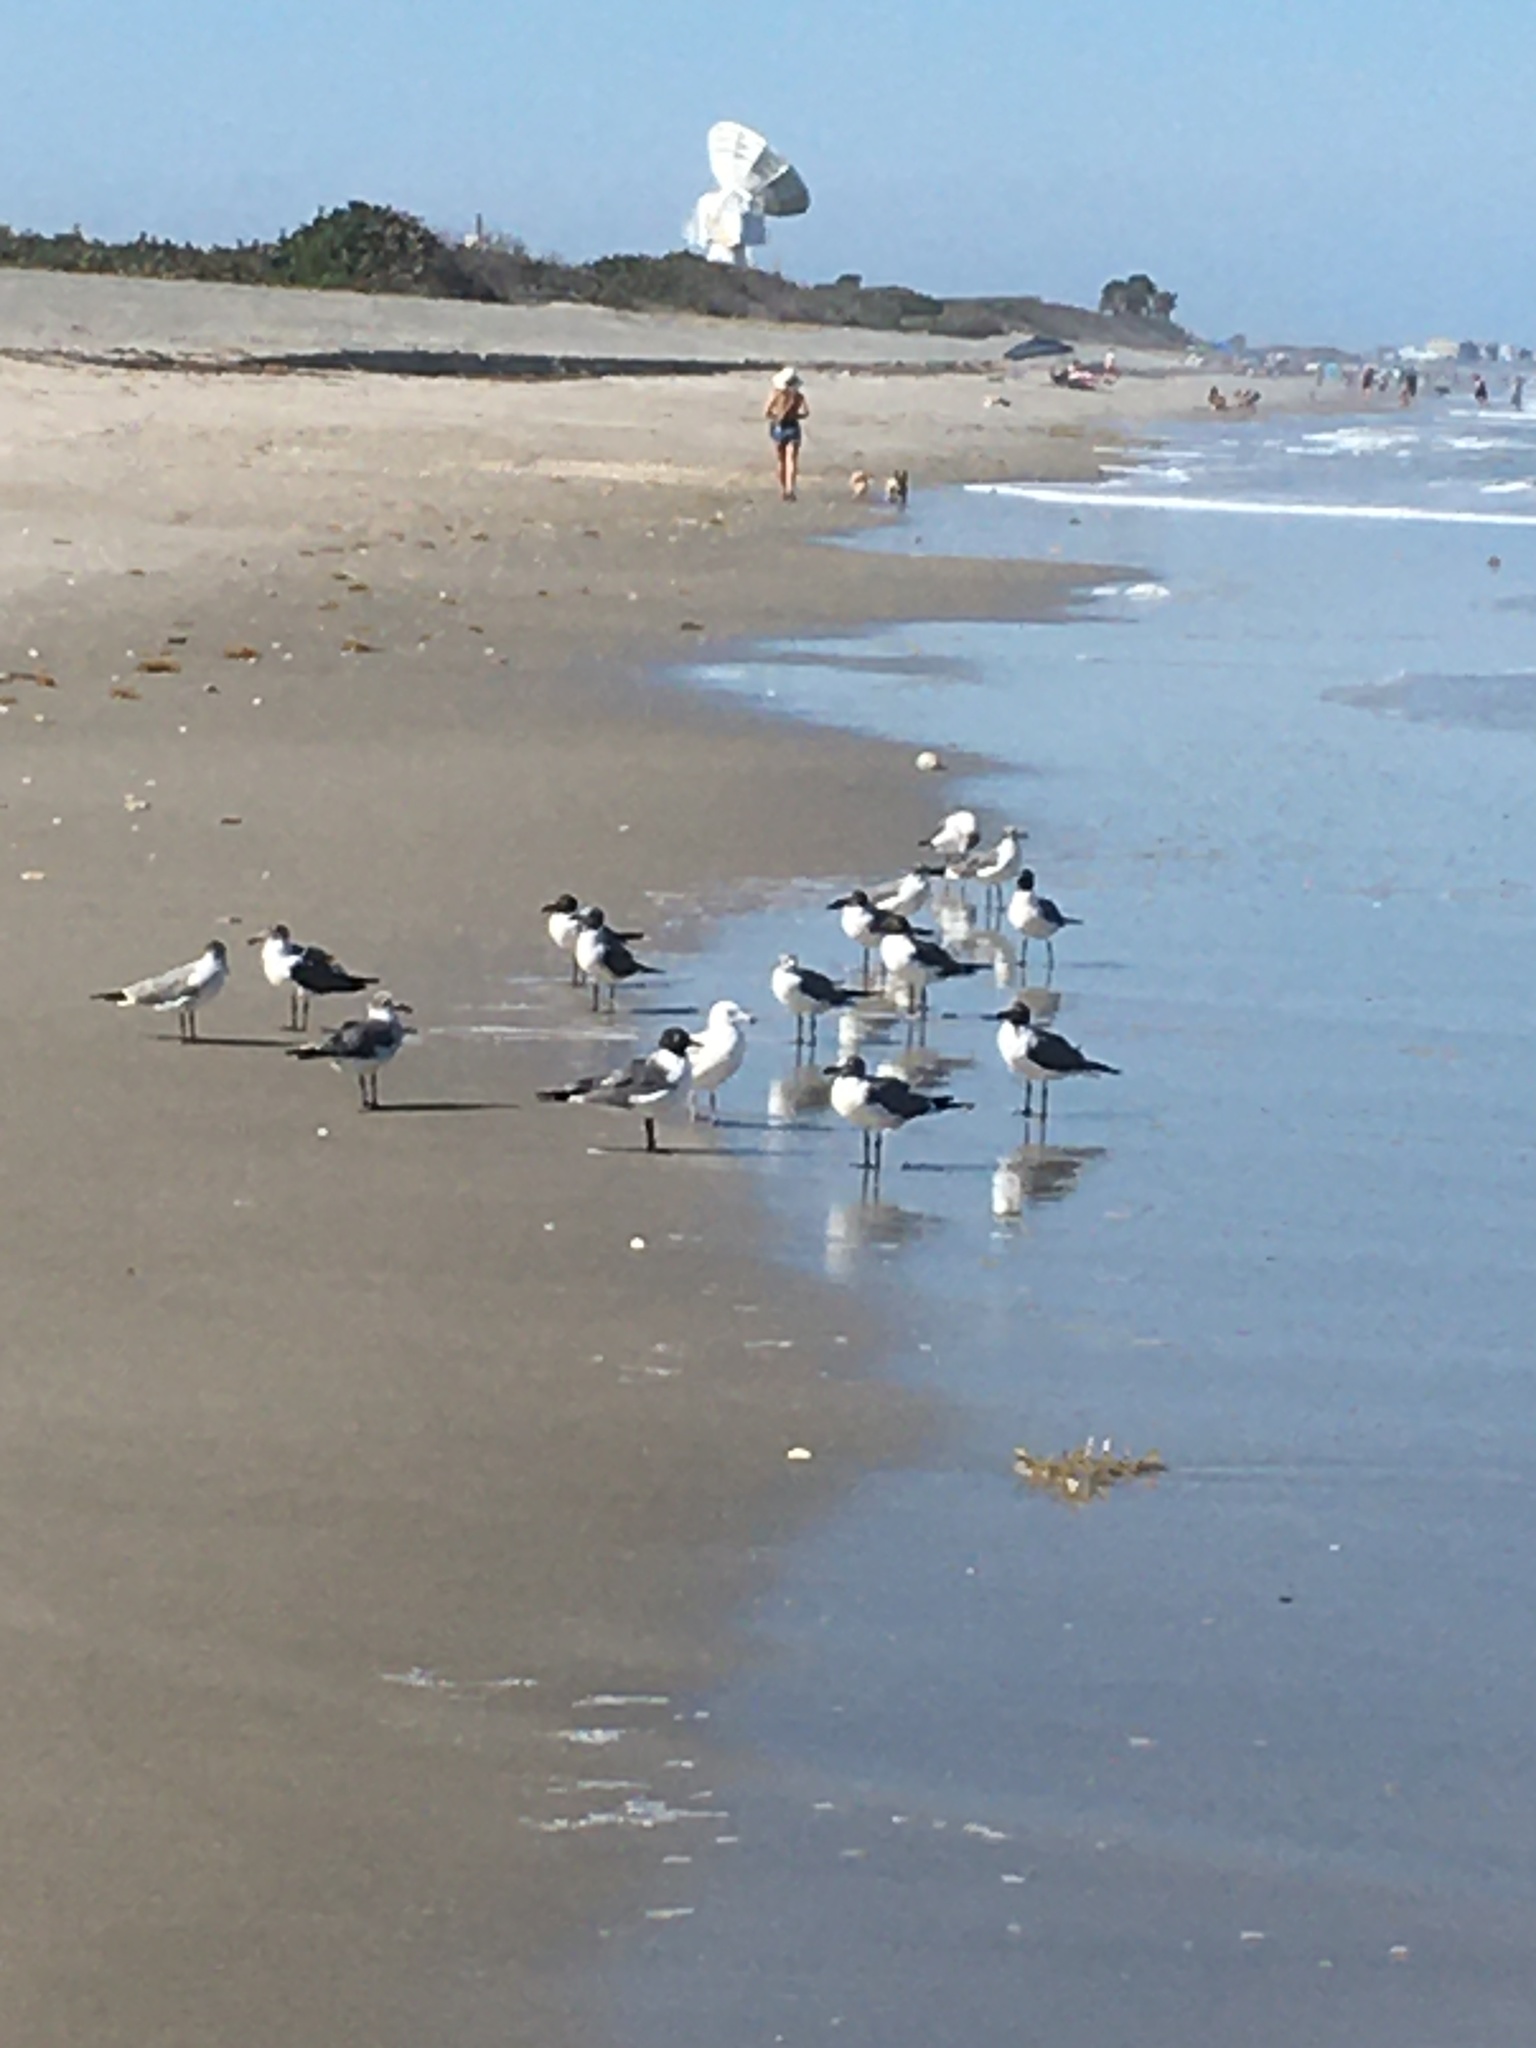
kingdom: Animalia
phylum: Chordata
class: Aves
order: Charadriiformes
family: Laridae
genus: Leucophaeus
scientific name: Leucophaeus atricilla
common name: Laughing gull
